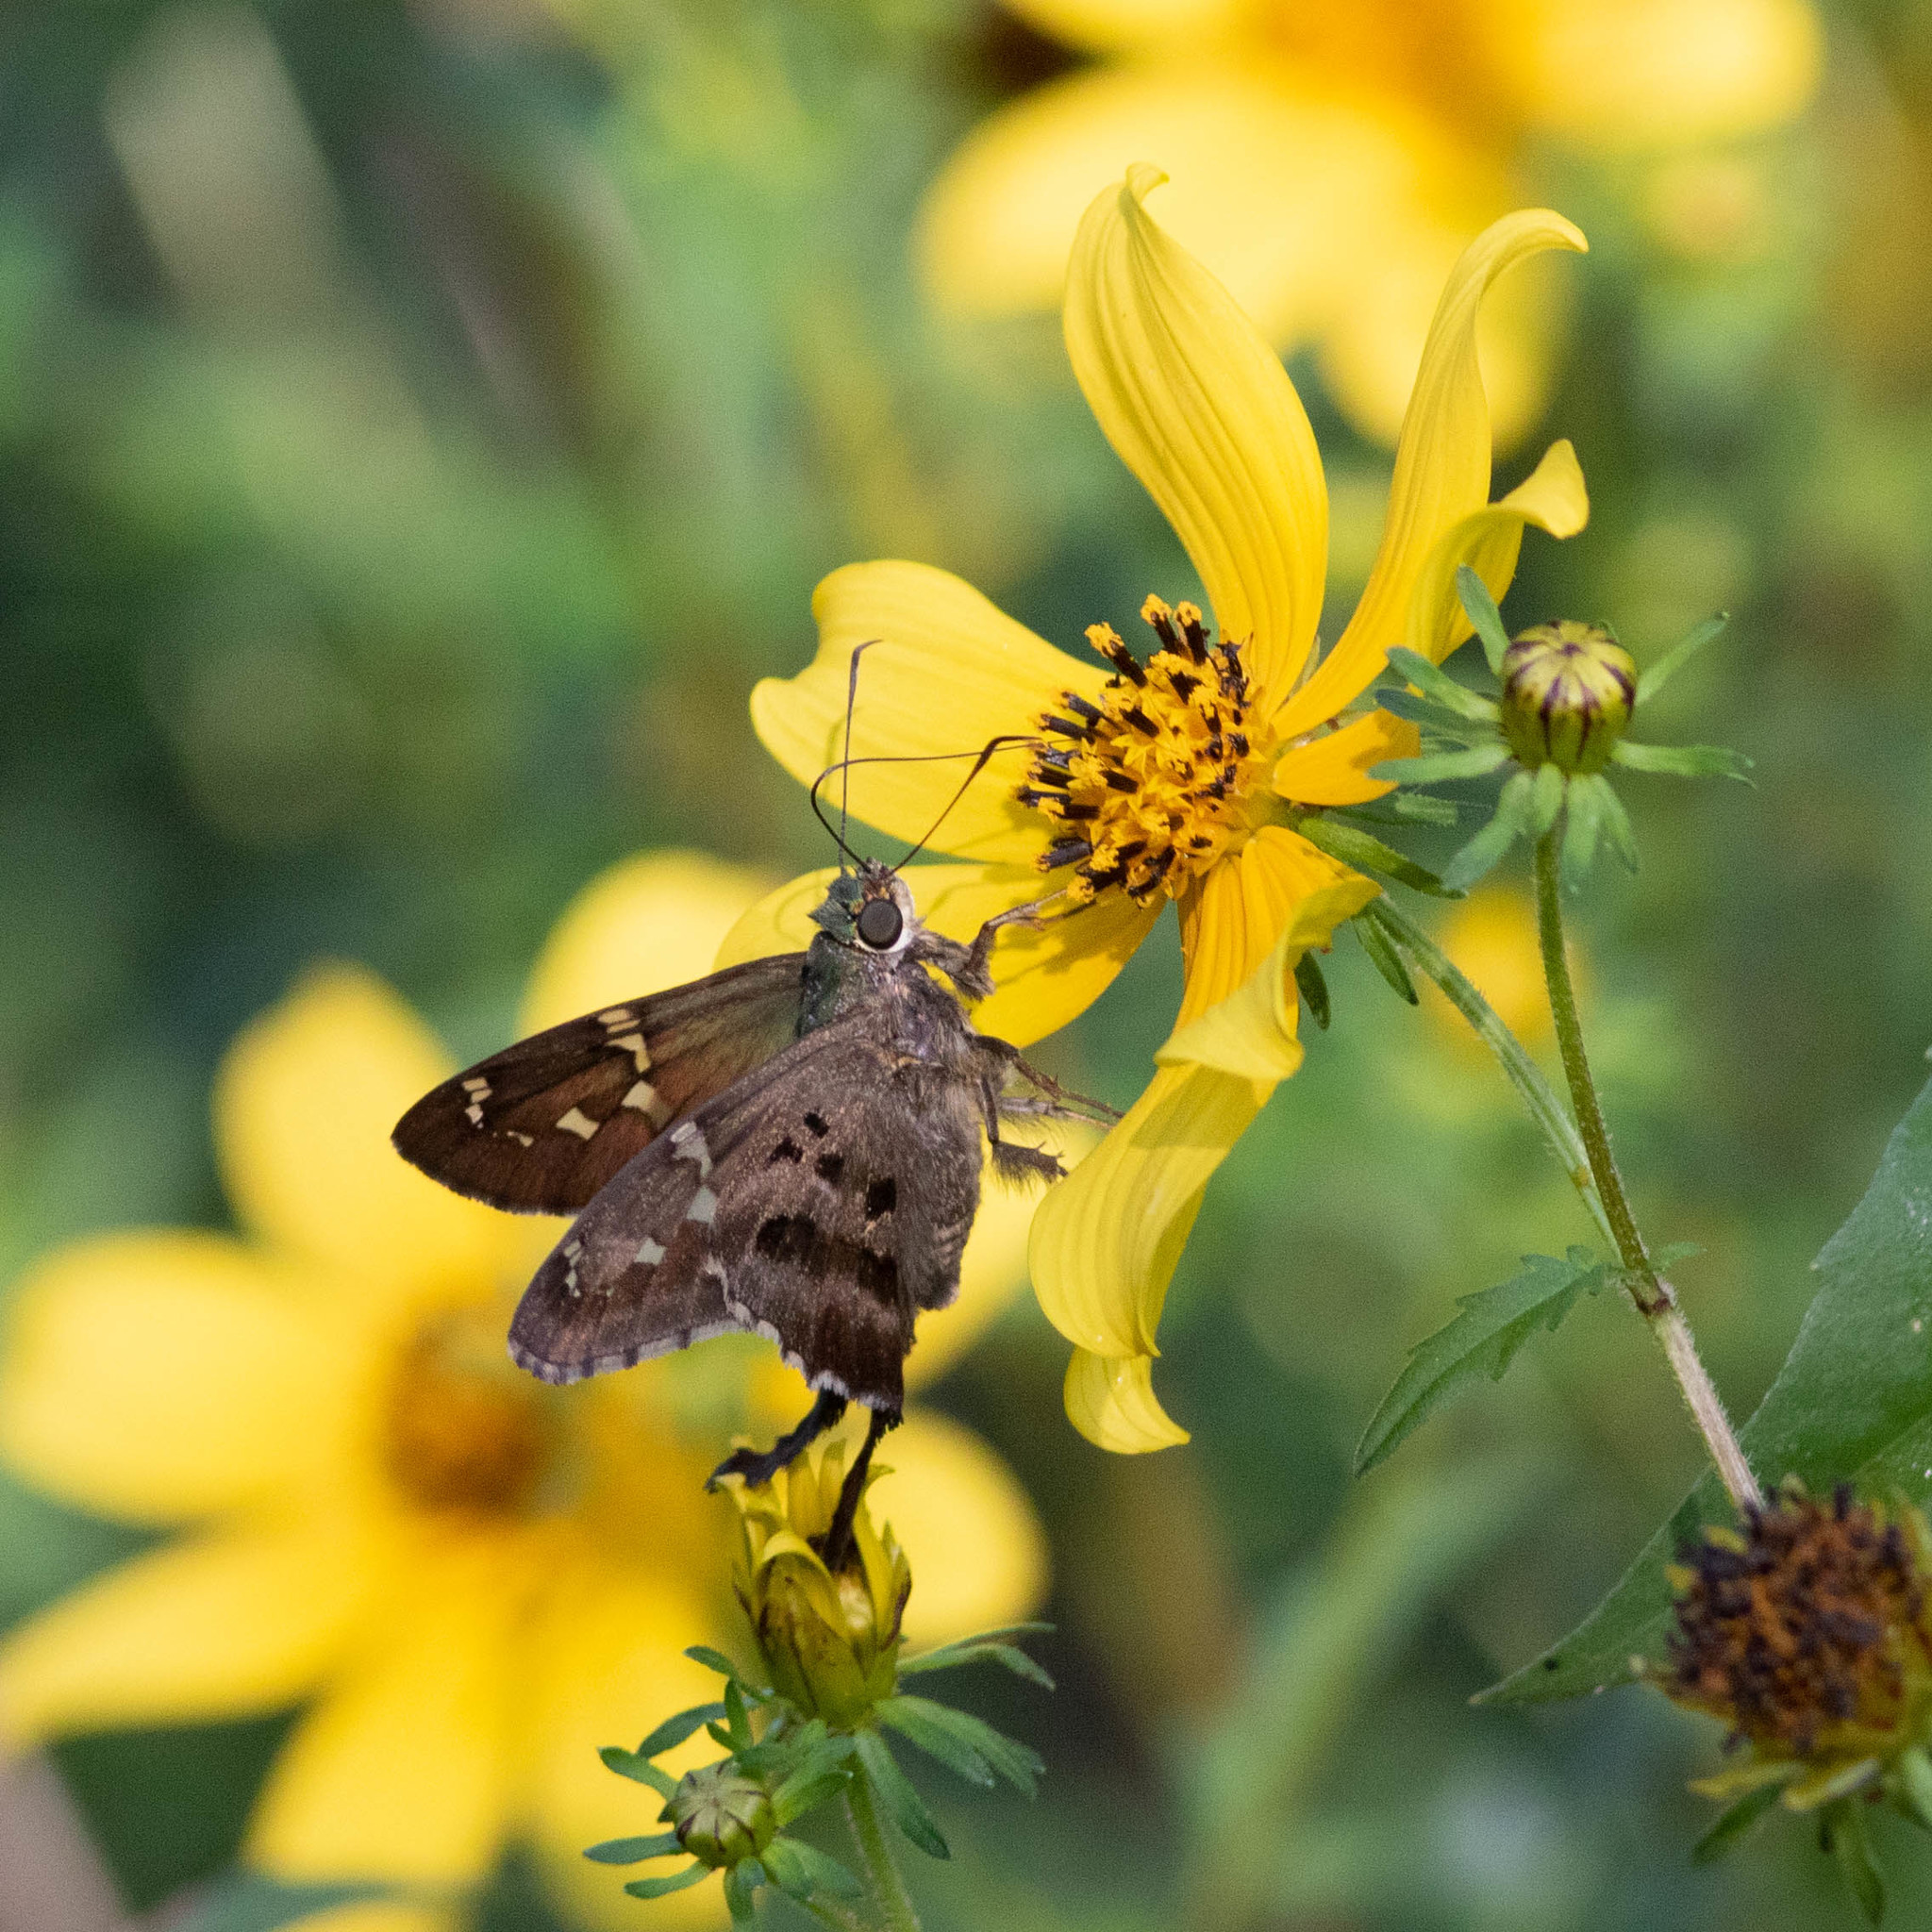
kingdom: Animalia
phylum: Arthropoda
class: Insecta
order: Lepidoptera
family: Hesperiidae
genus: Urbanus
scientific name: Urbanus proteus
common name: Long-tailed skipper
